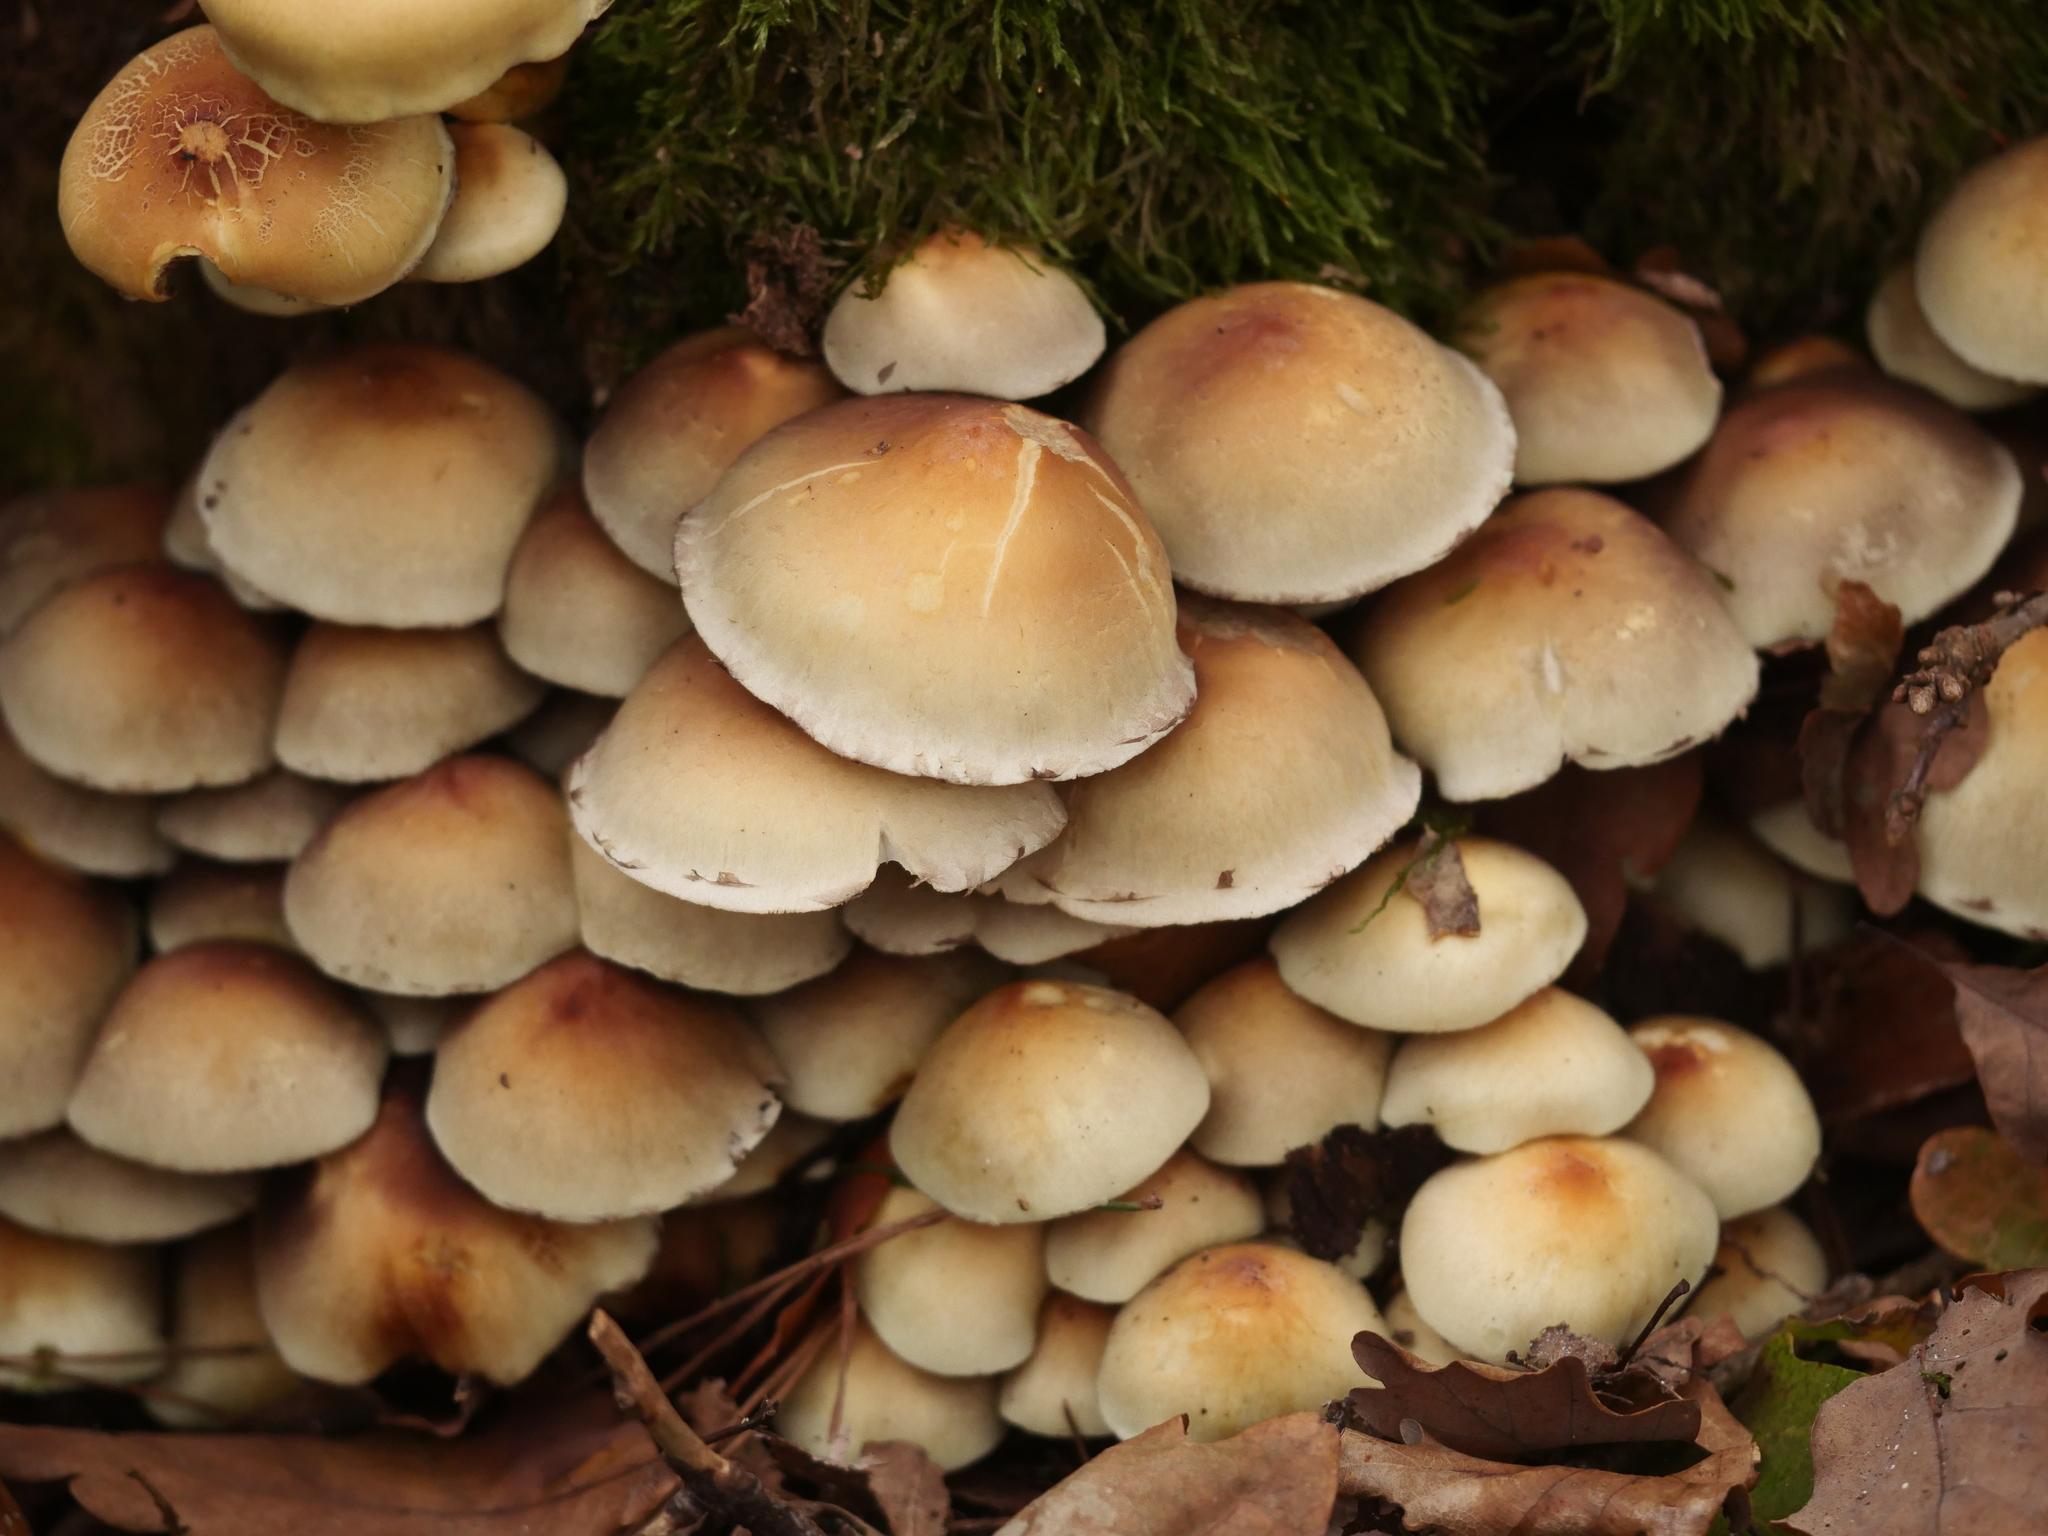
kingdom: Fungi
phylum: Basidiomycota
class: Agaricomycetes
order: Agaricales
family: Strophariaceae
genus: Hypholoma
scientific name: Hypholoma fasciculare
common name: Sulphur tuft
